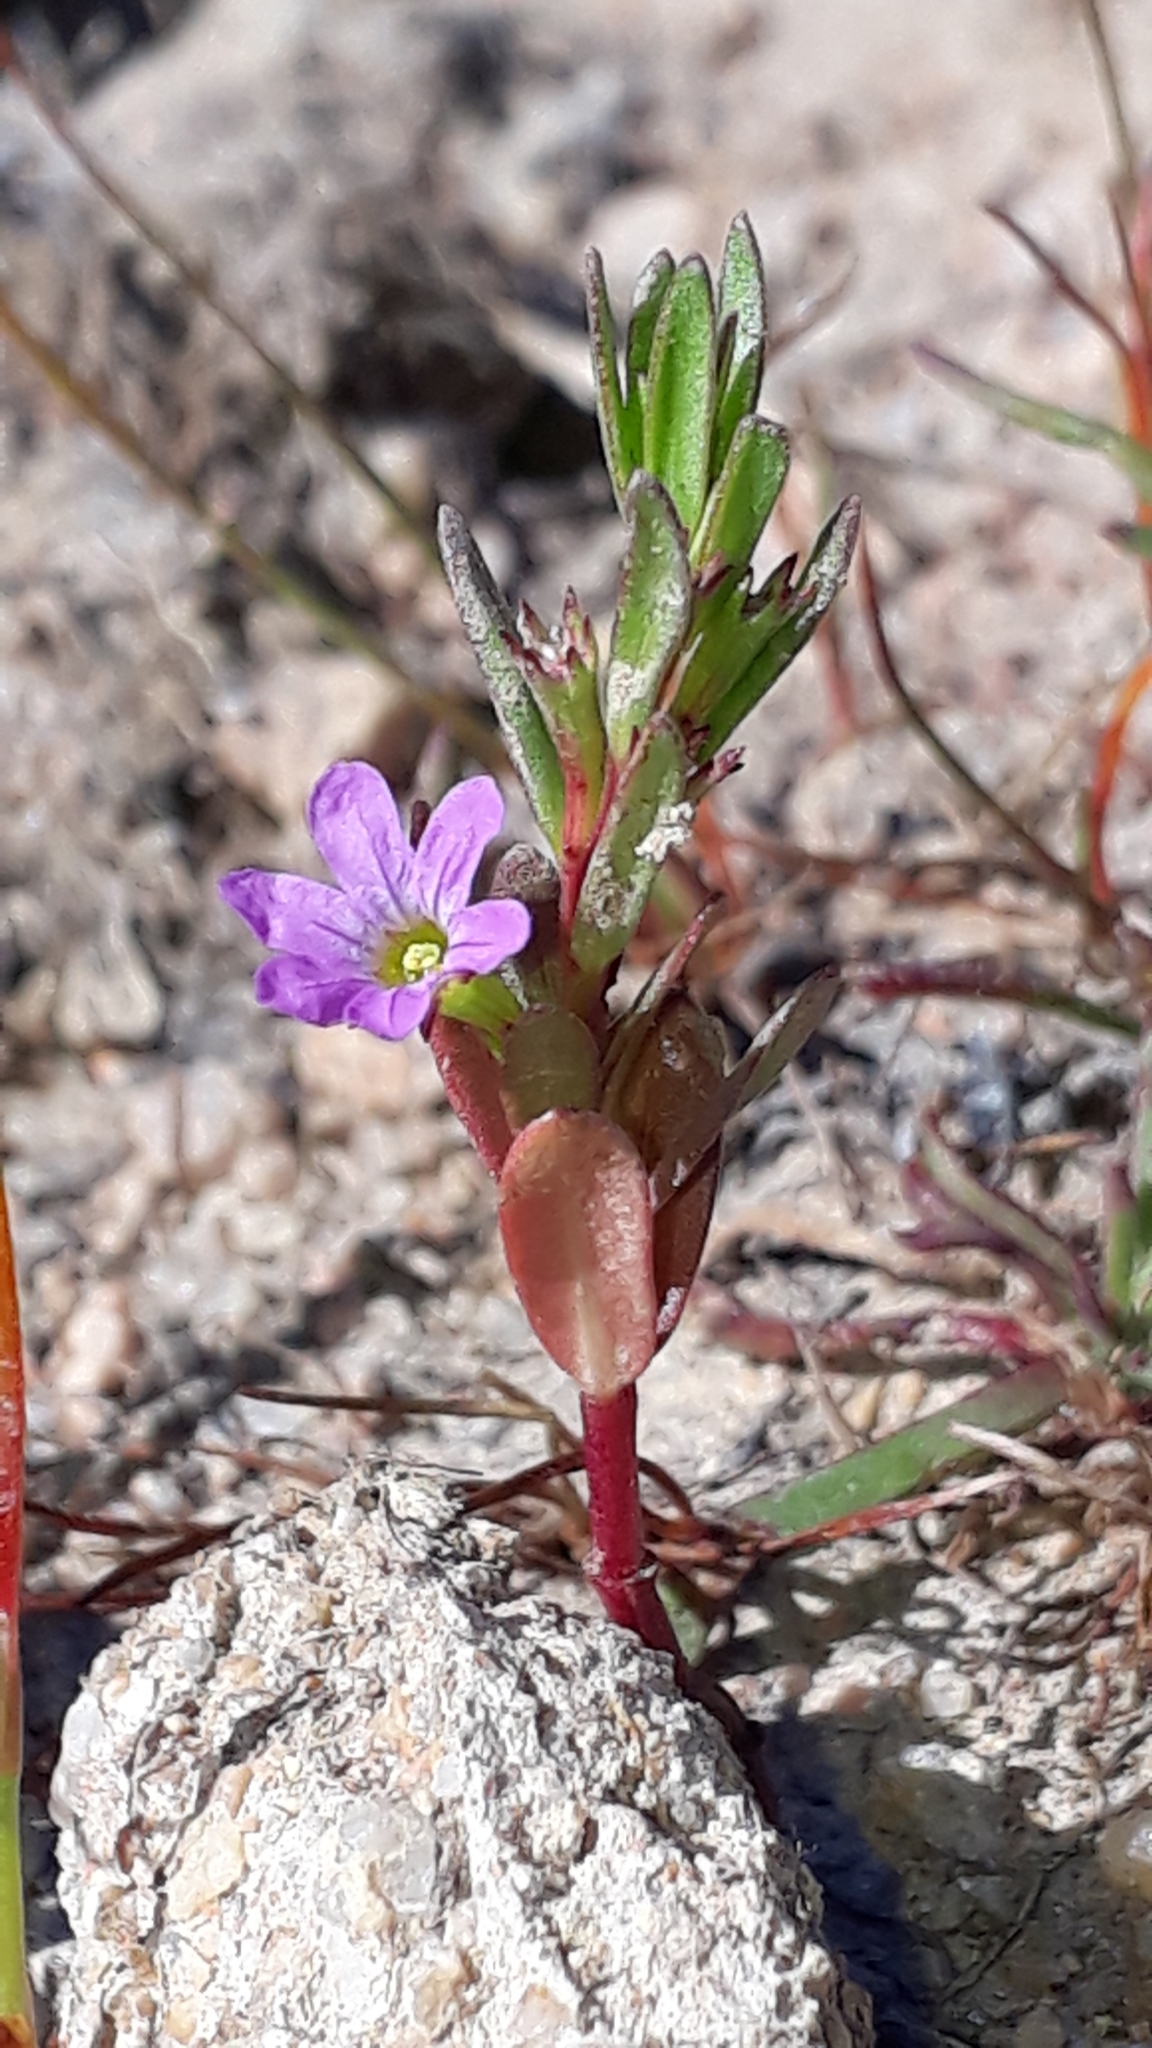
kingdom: Plantae
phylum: Tracheophyta
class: Magnoliopsida
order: Myrtales
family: Lythraceae
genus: Lythrum
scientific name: Lythrum hyssopifolia
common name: Grass-poly
